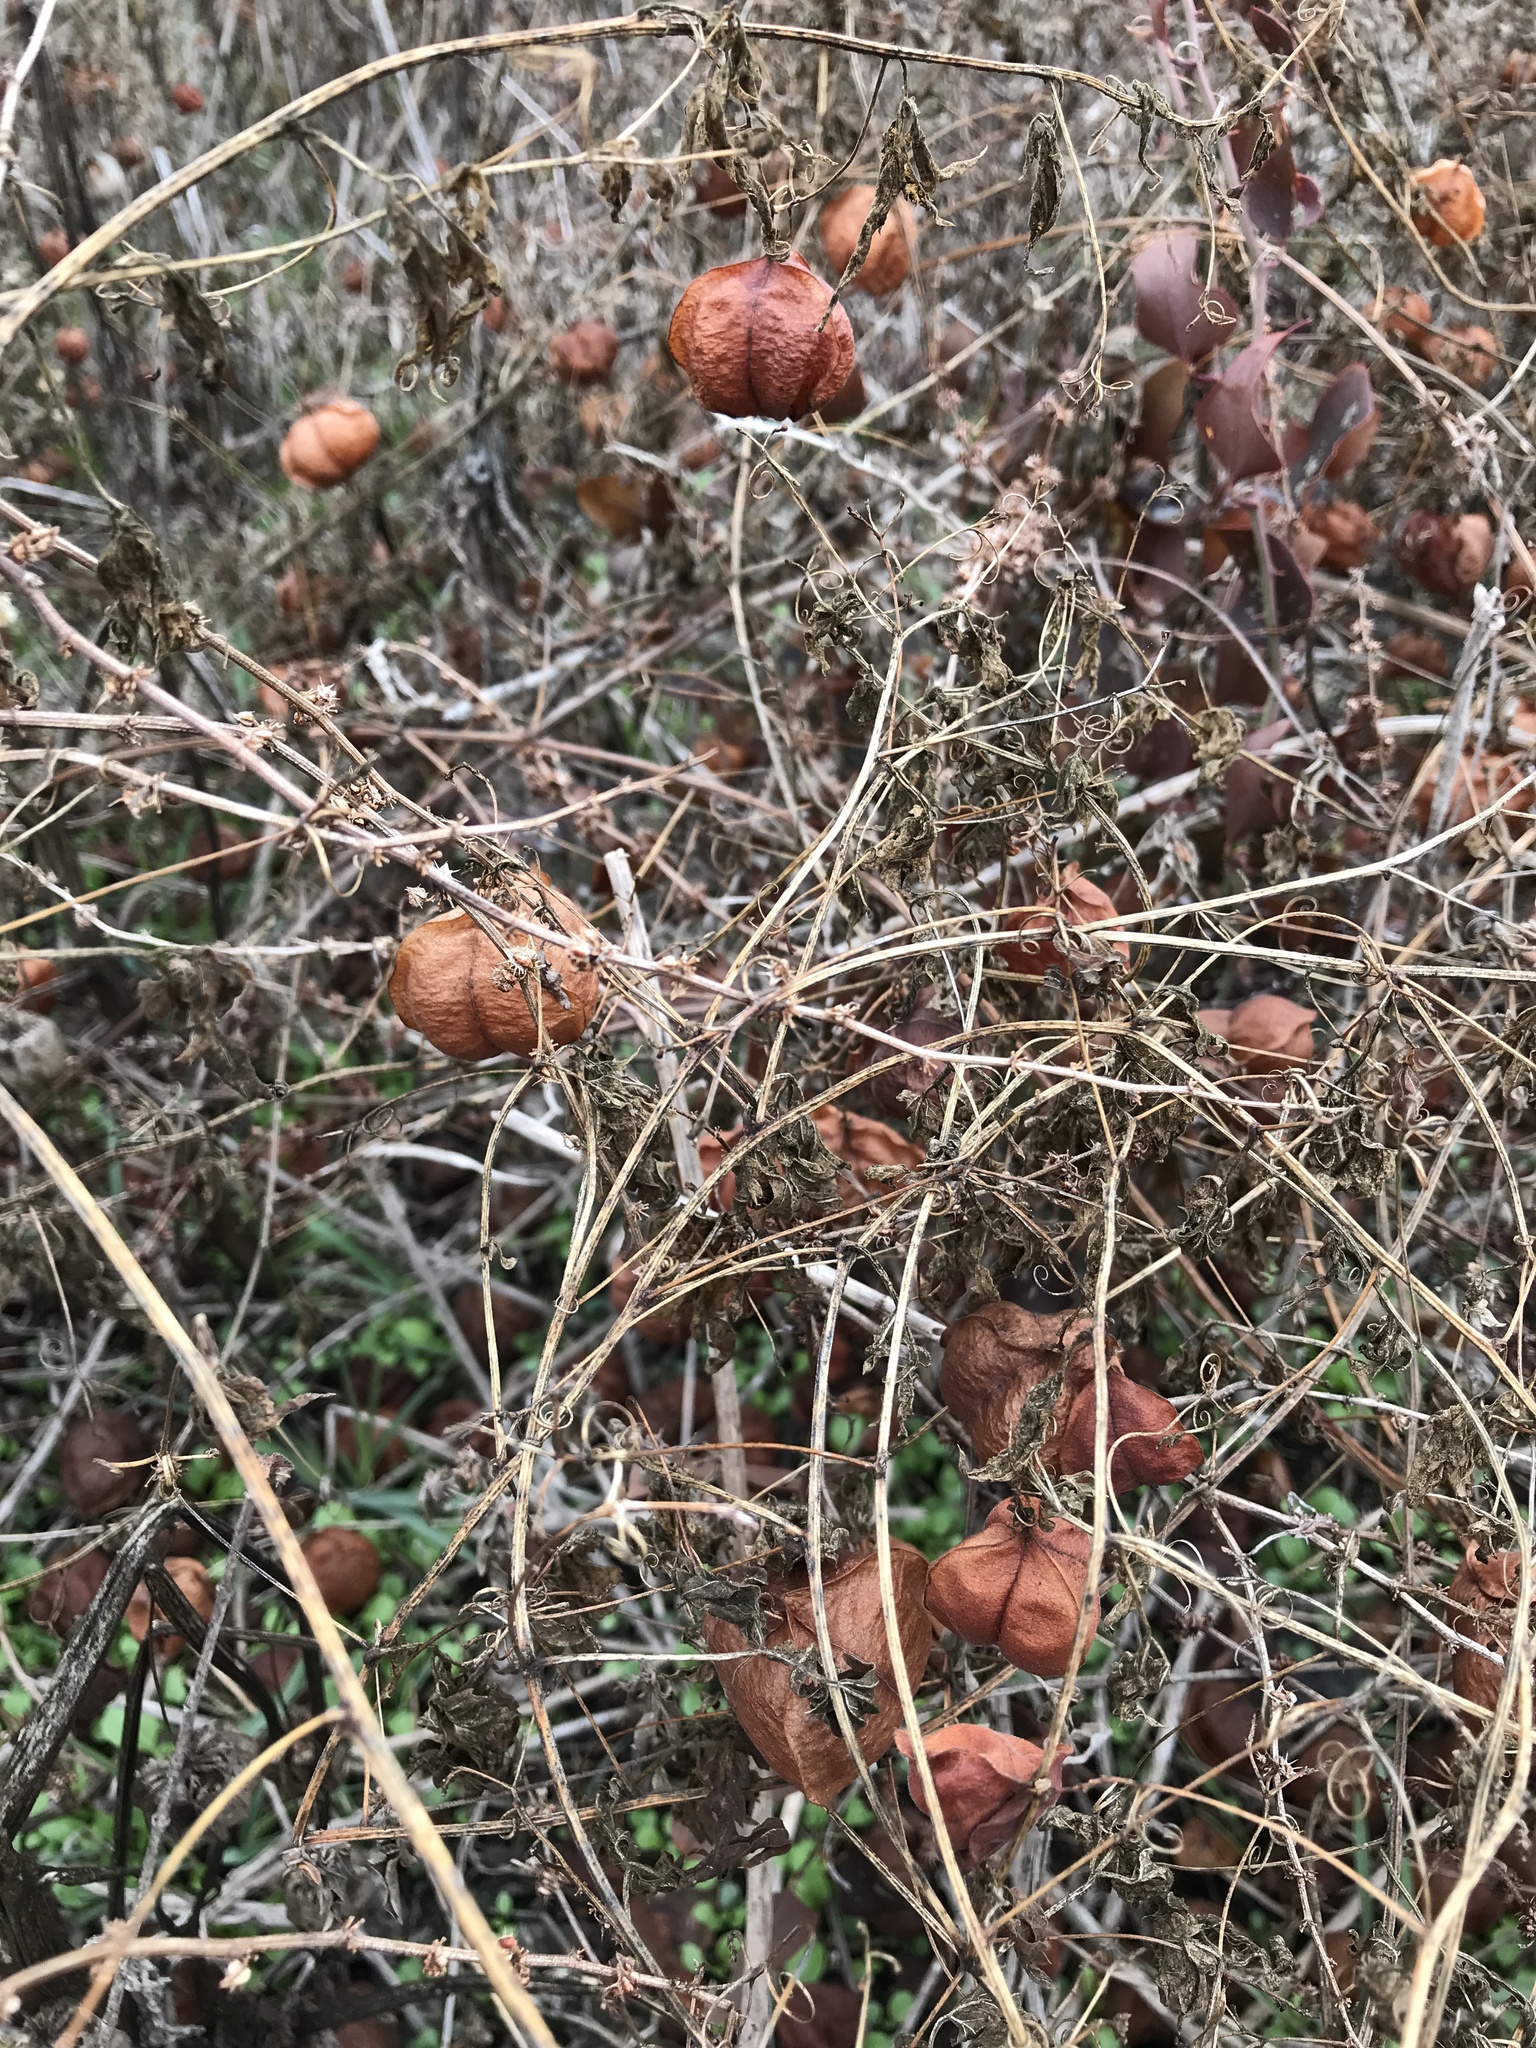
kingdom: Plantae
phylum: Tracheophyta
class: Magnoliopsida
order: Sapindales
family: Sapindaceae
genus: Cardiospermum
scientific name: Cardiospermum halicacabum
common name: Balloon vine
